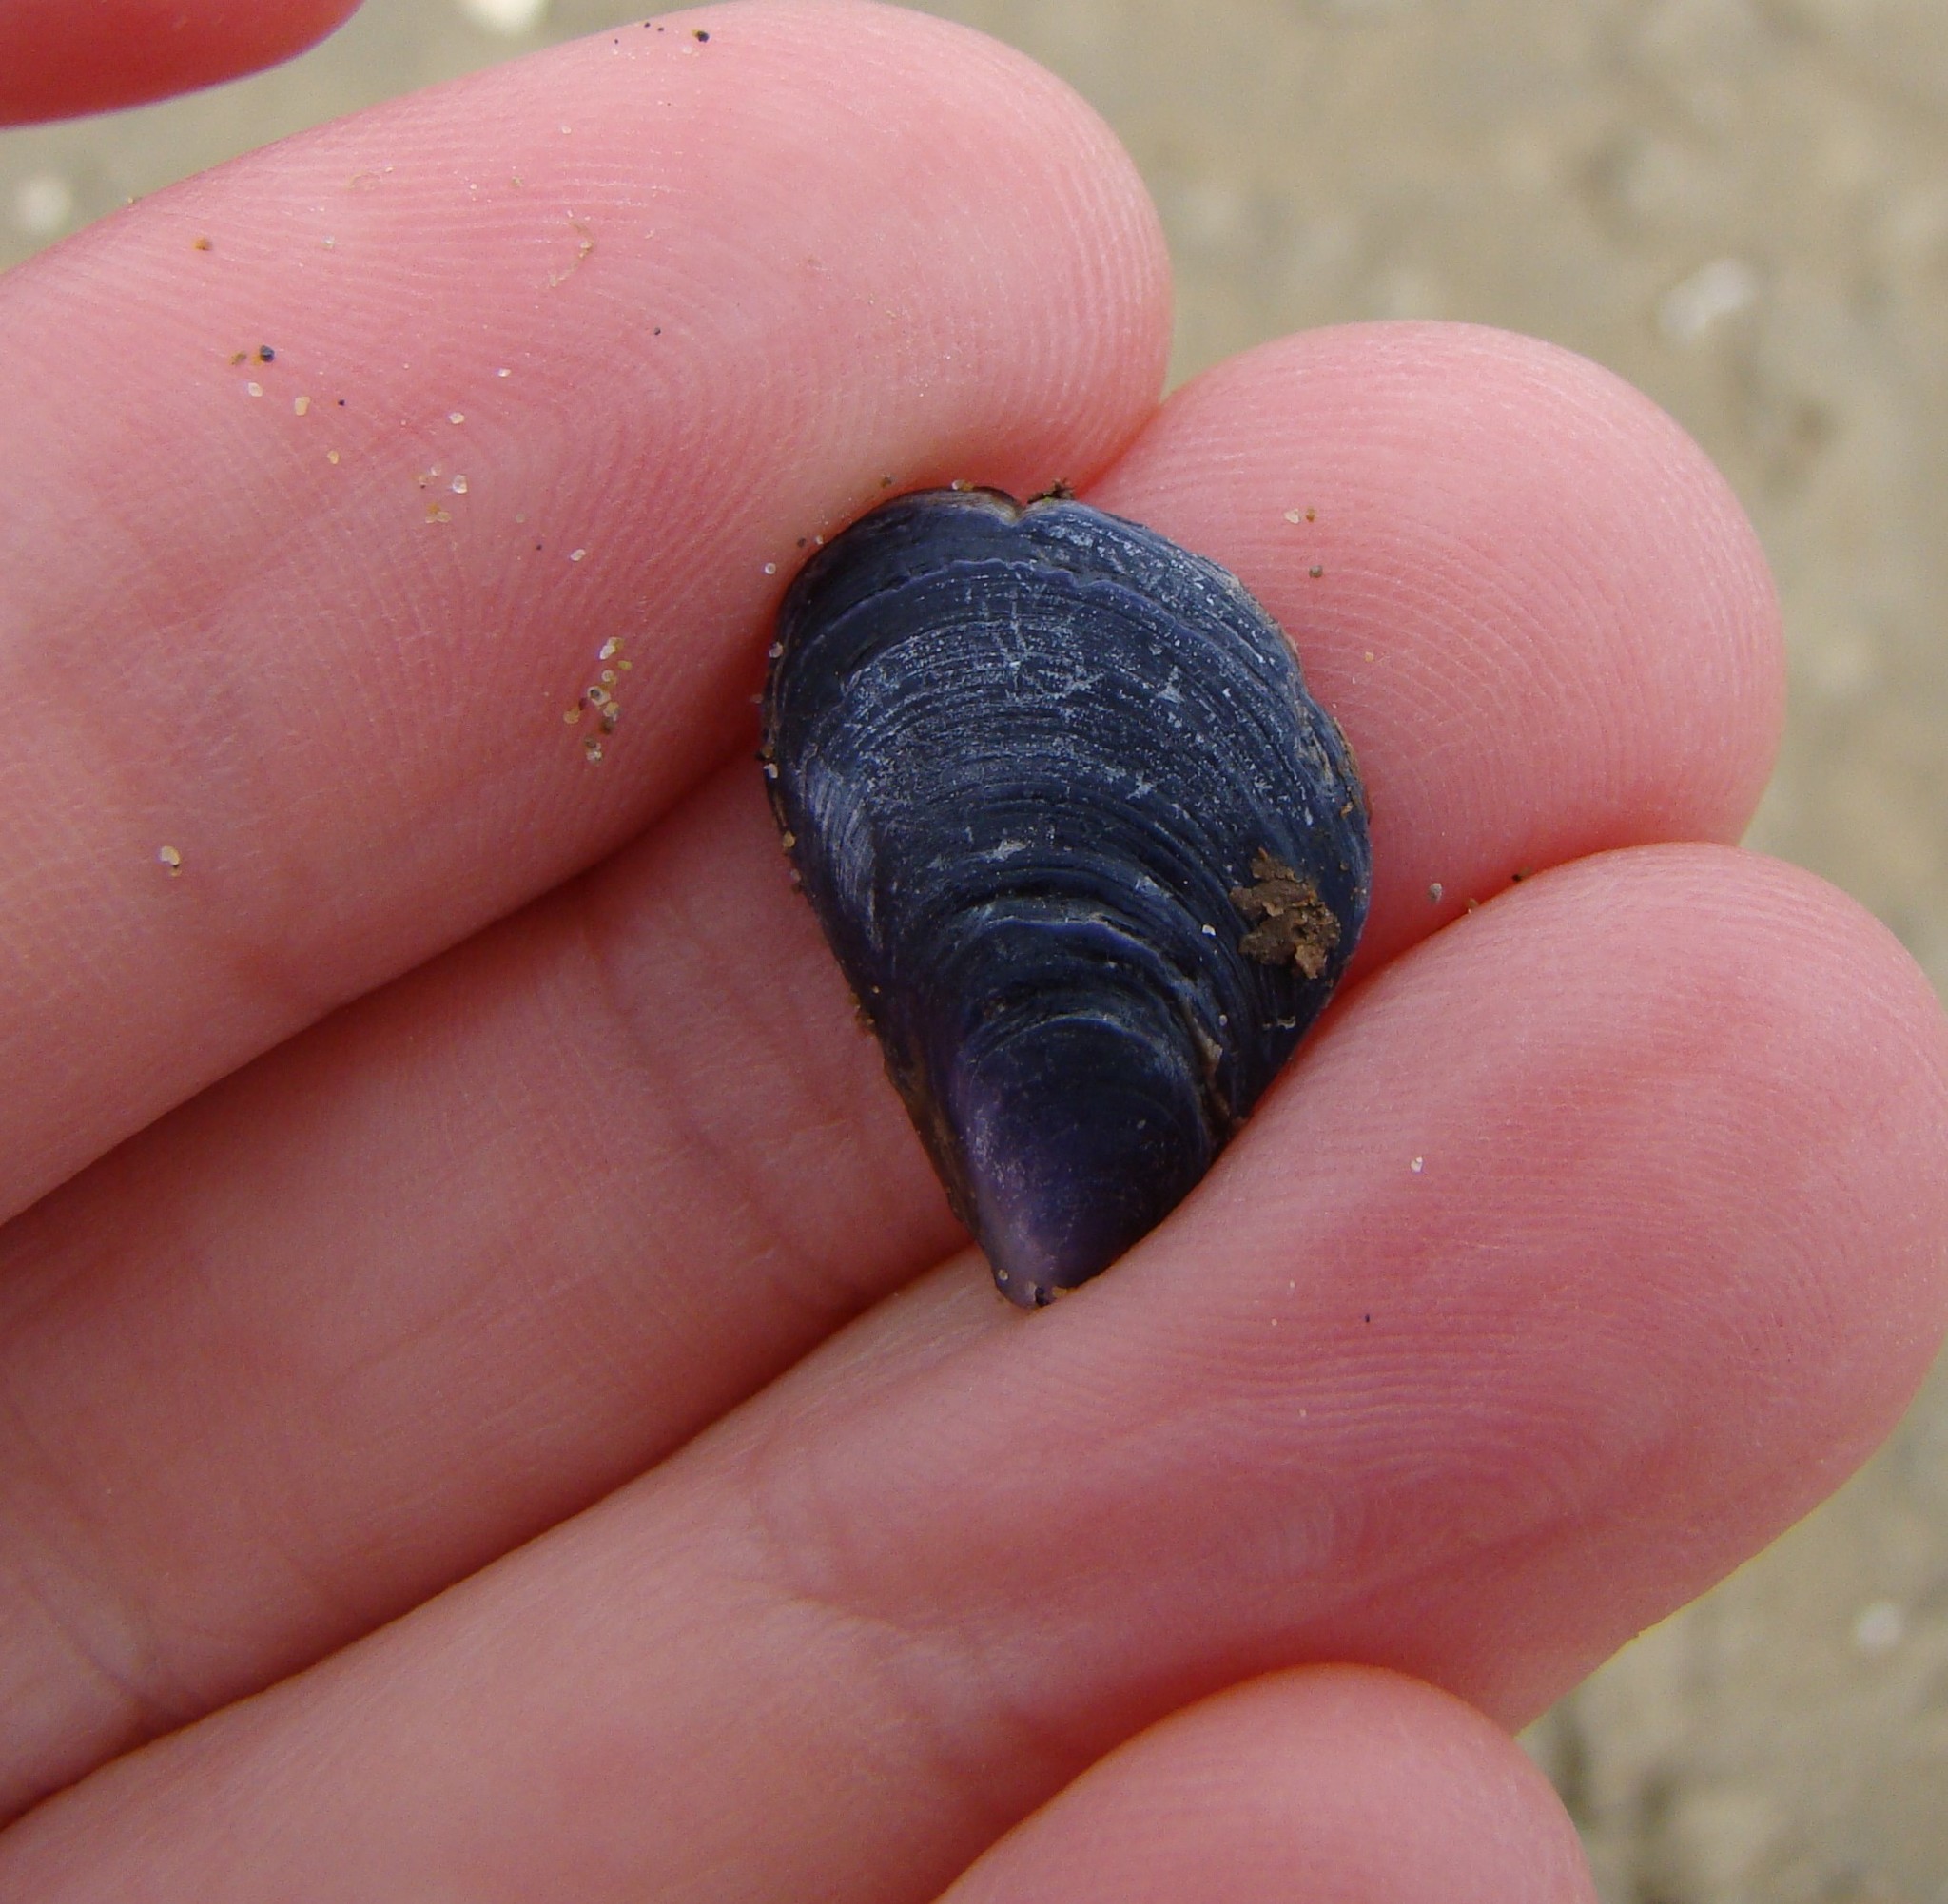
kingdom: Animalia
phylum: Mollusca
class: Bivalvia
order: Mytilida
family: Mytilidae
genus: Mytilus
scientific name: Mytilus planulatus
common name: Australian mussel
